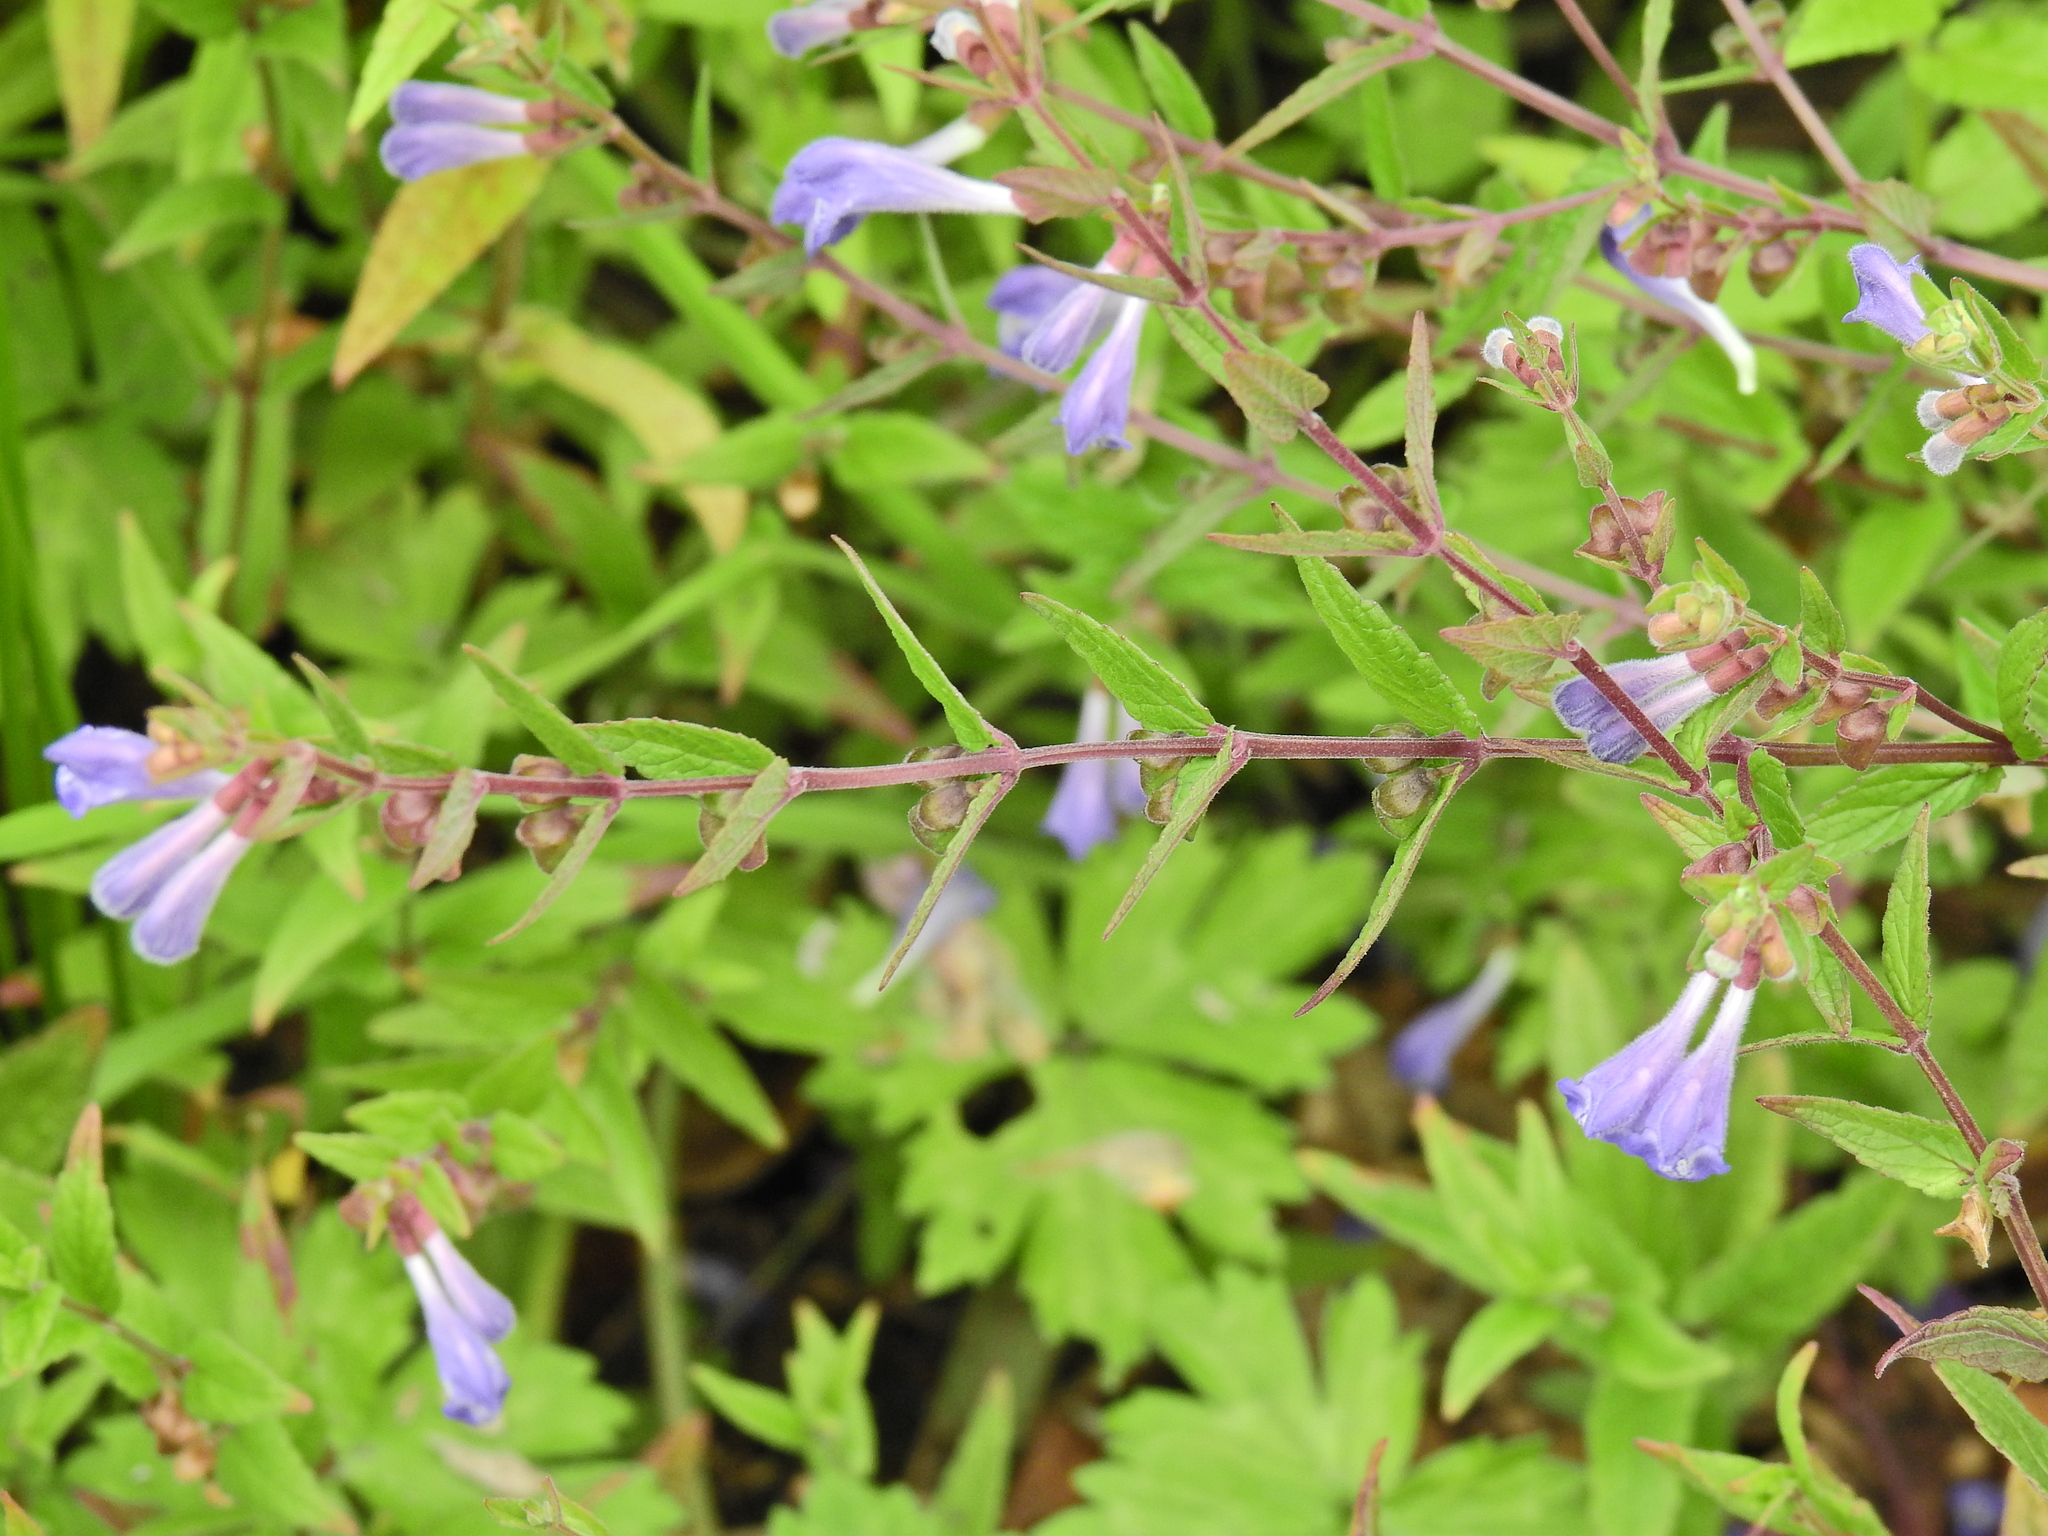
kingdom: Plantae
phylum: Tracheophyta
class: Magnoliopsida
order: Lamiales
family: Lamiaceae
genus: Scutellaria
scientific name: Scutellaria galericulata
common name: Skullcap
